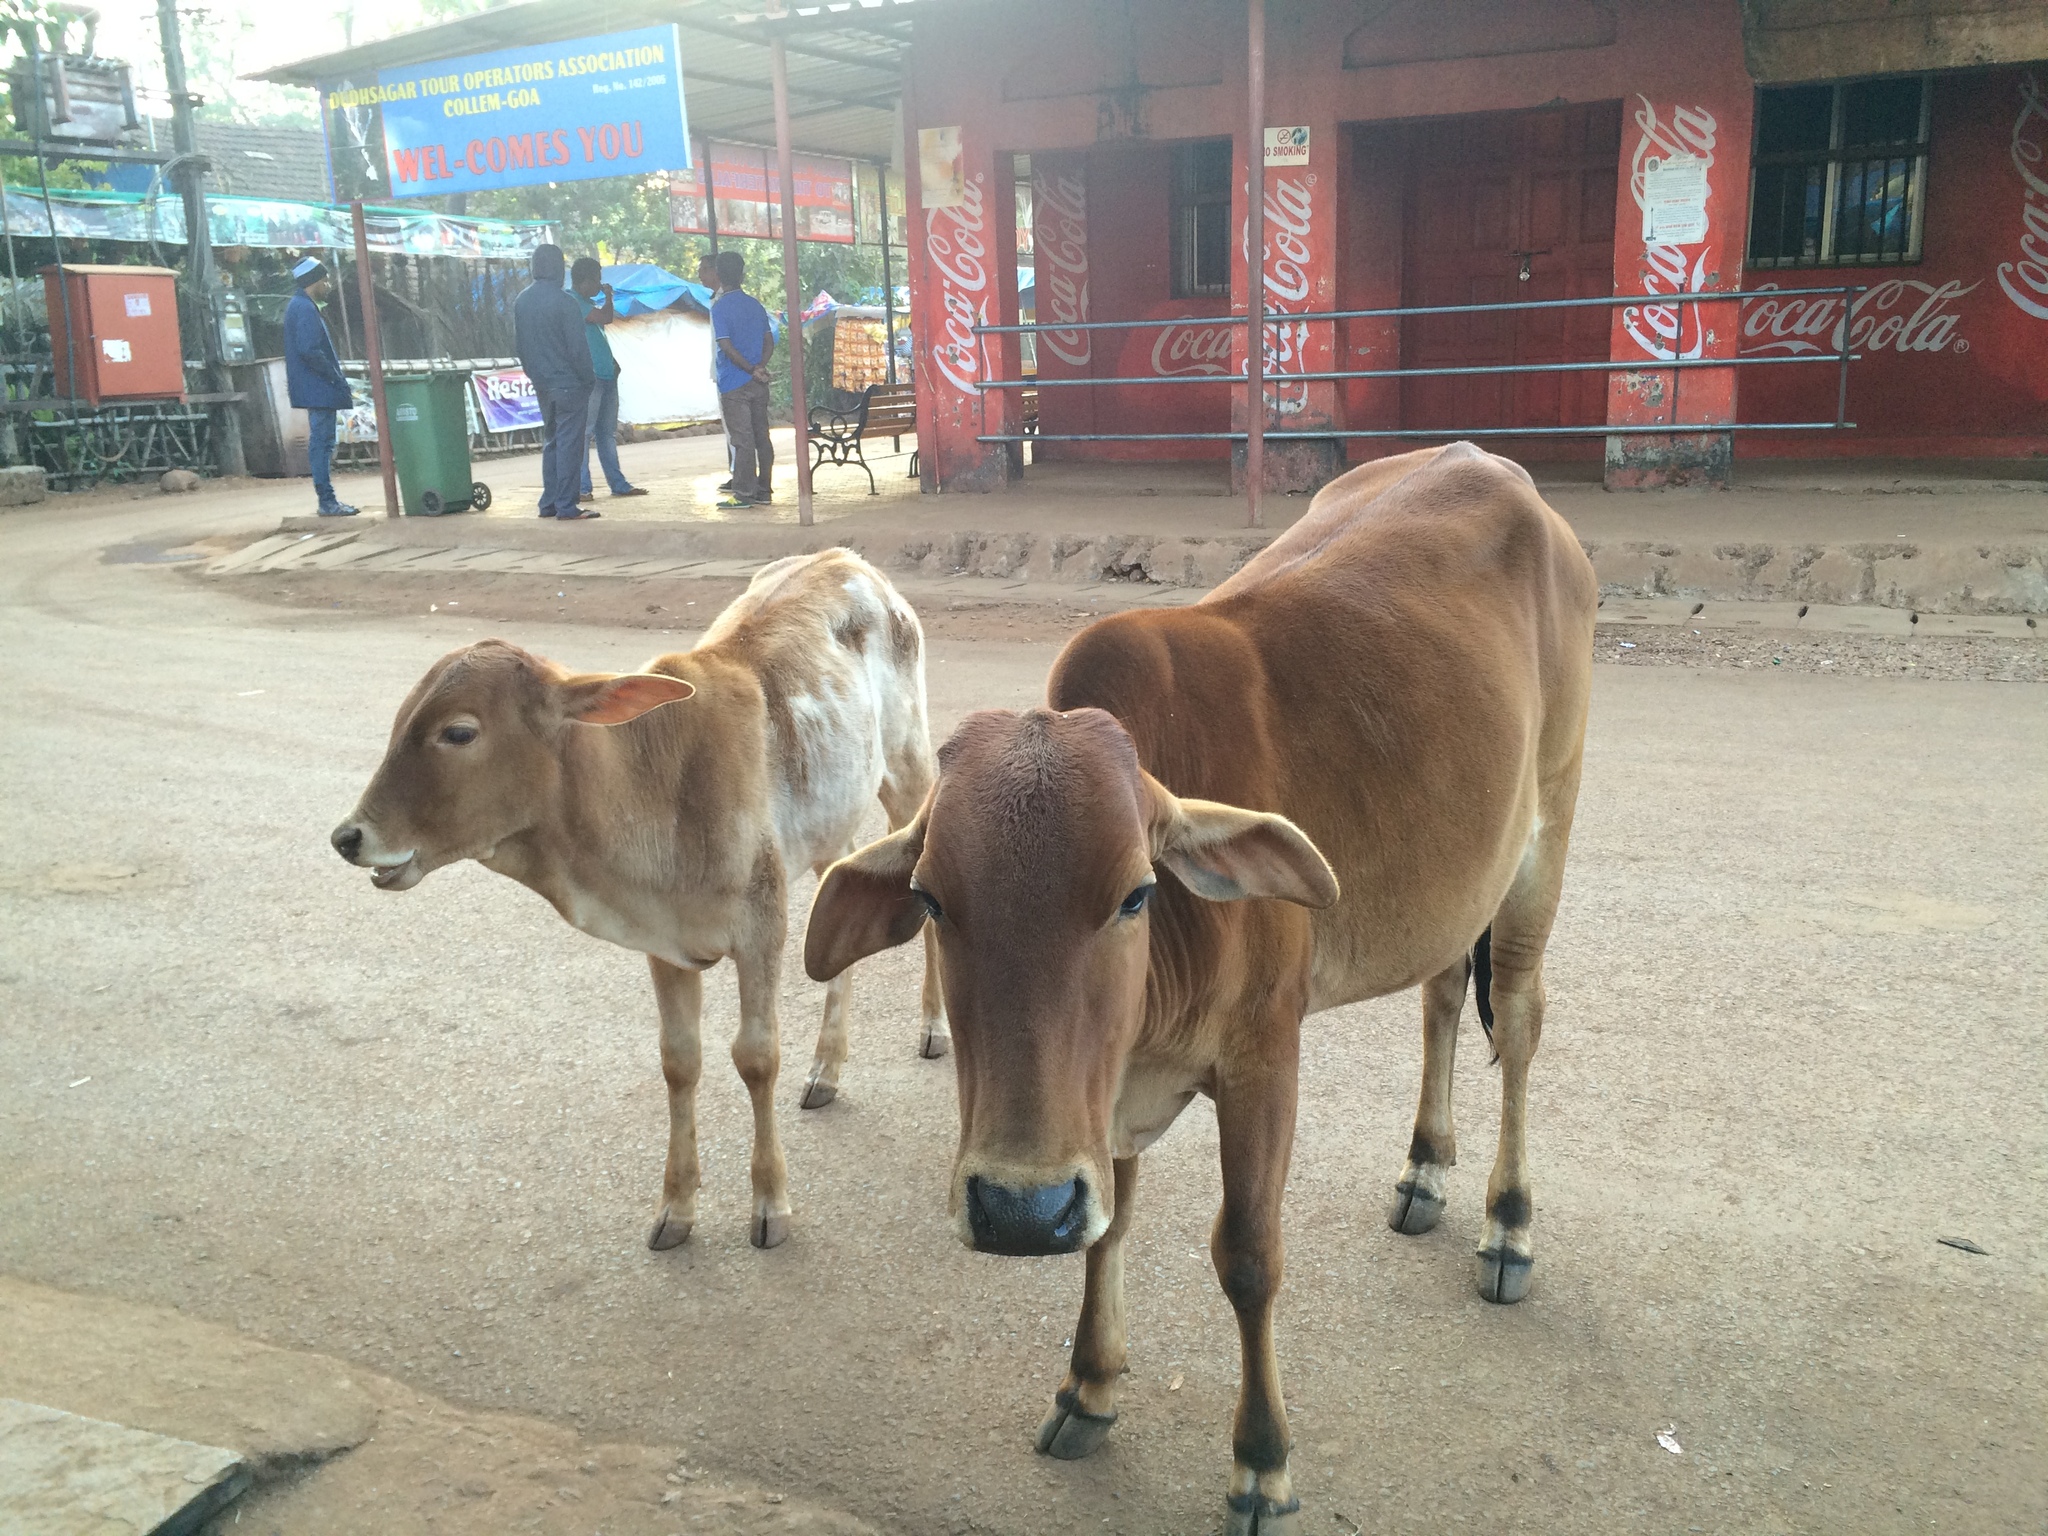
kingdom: Animalia
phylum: Chordata
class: Mammalia
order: Artiodactyla
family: Bovidae
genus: Bos
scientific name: Bos taurus
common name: Domesticated cattle
